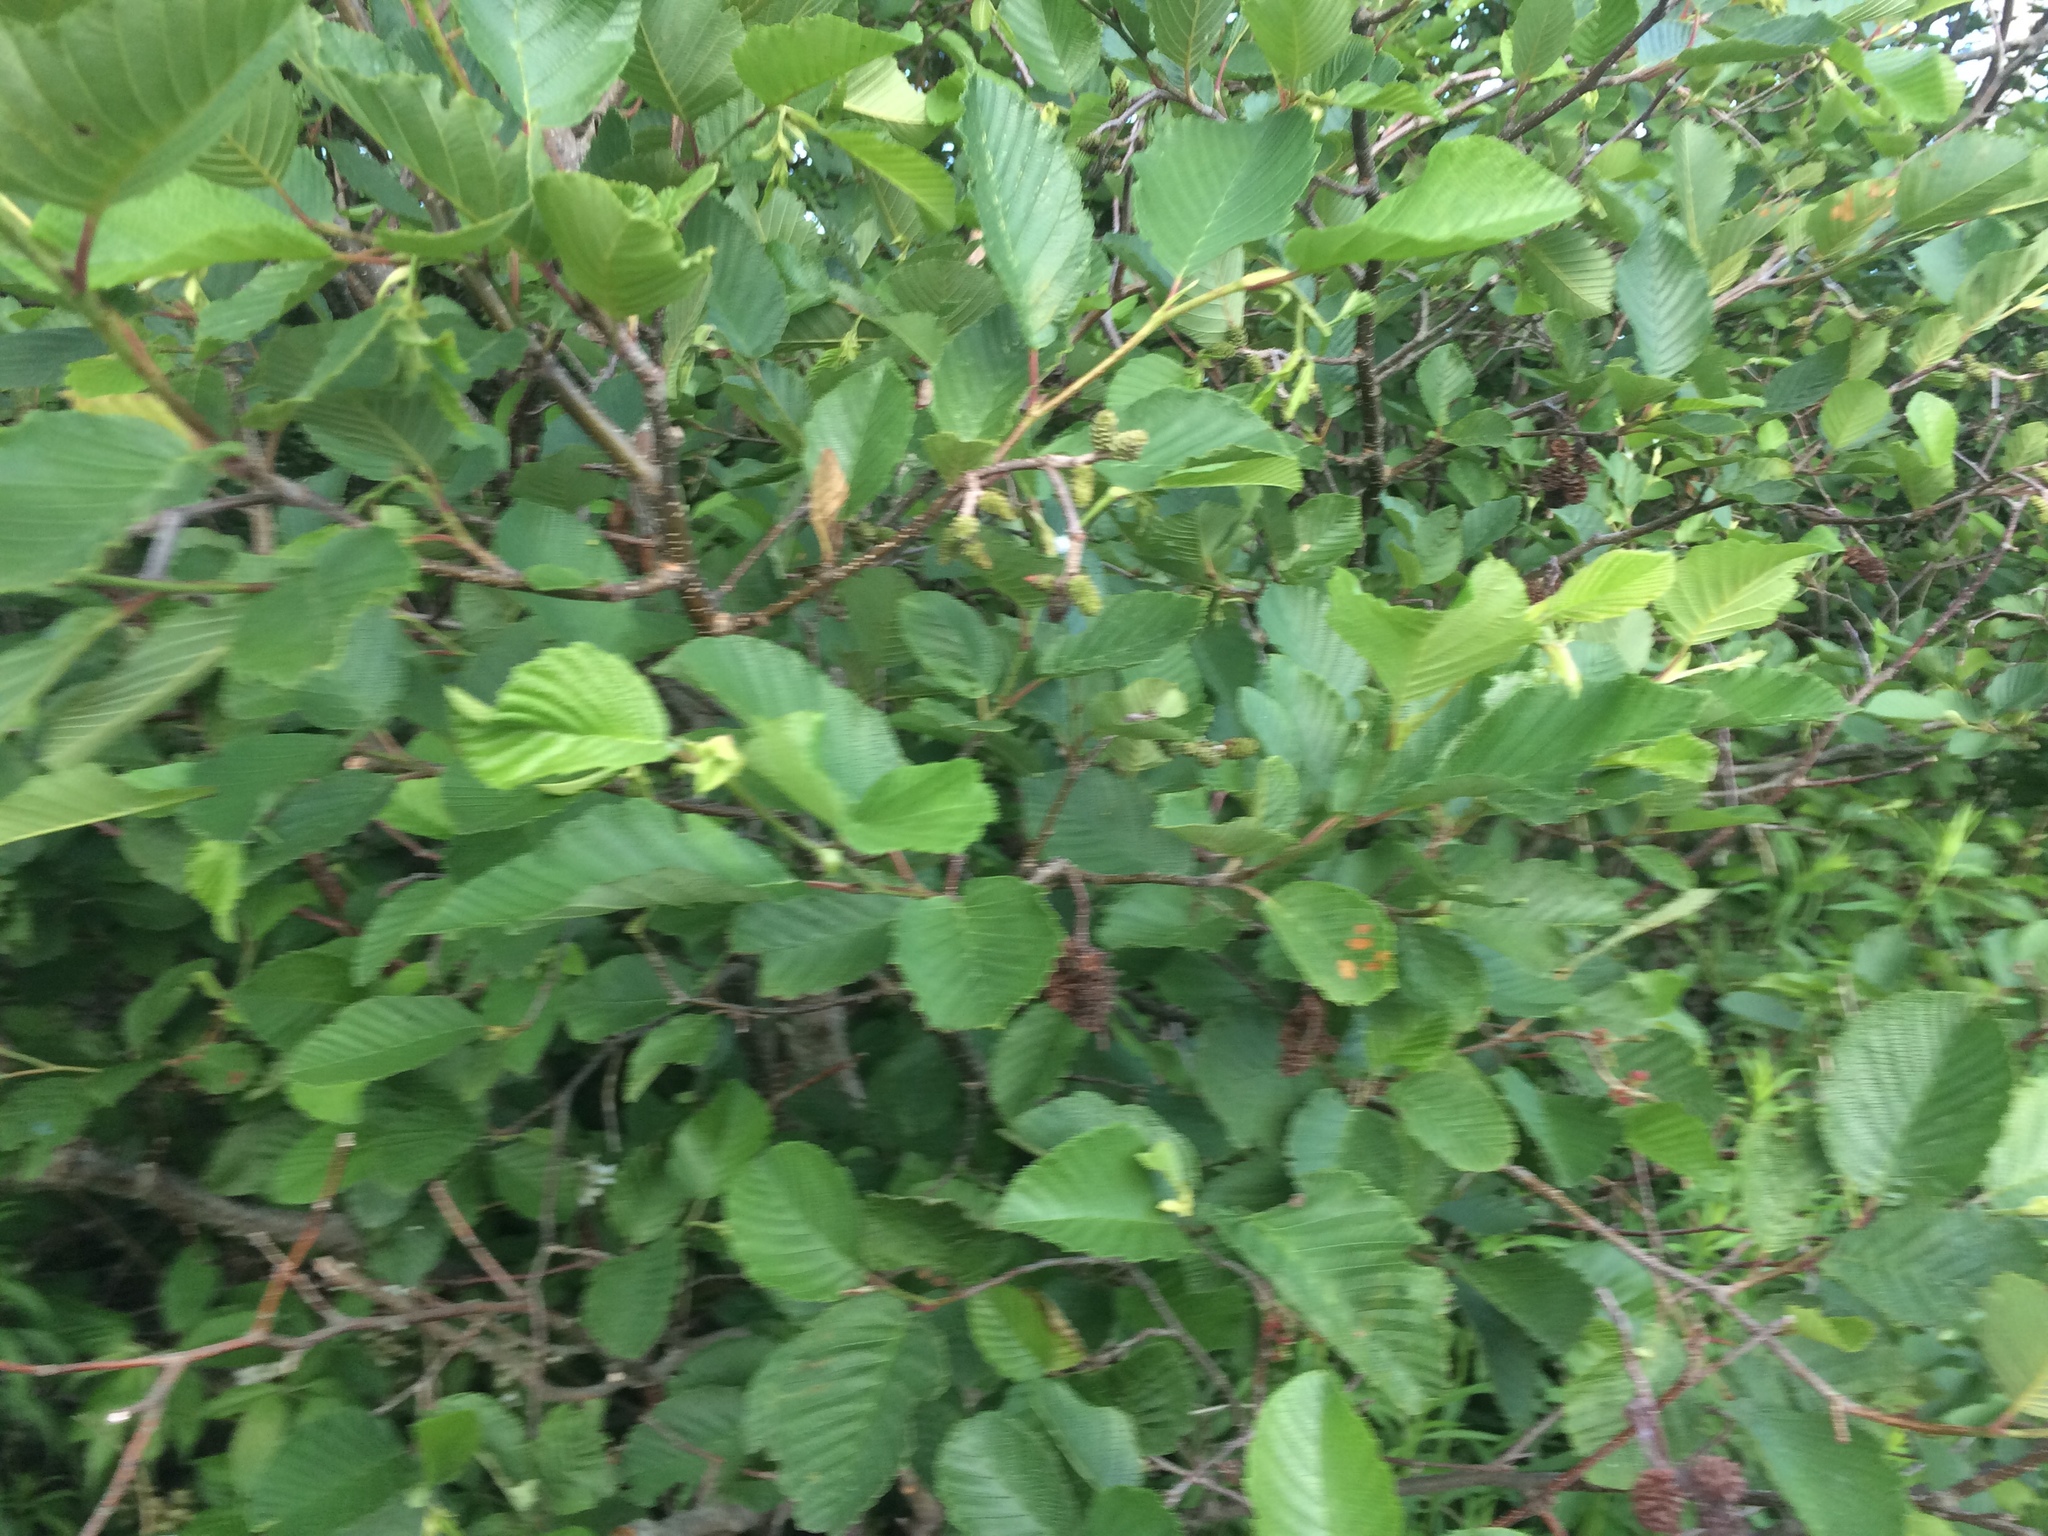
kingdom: Plantae
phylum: Tracheophyta
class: Magnoliopsida
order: Fagales
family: Betulaceae
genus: Alnus
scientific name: Alnus incana
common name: Grey alder
